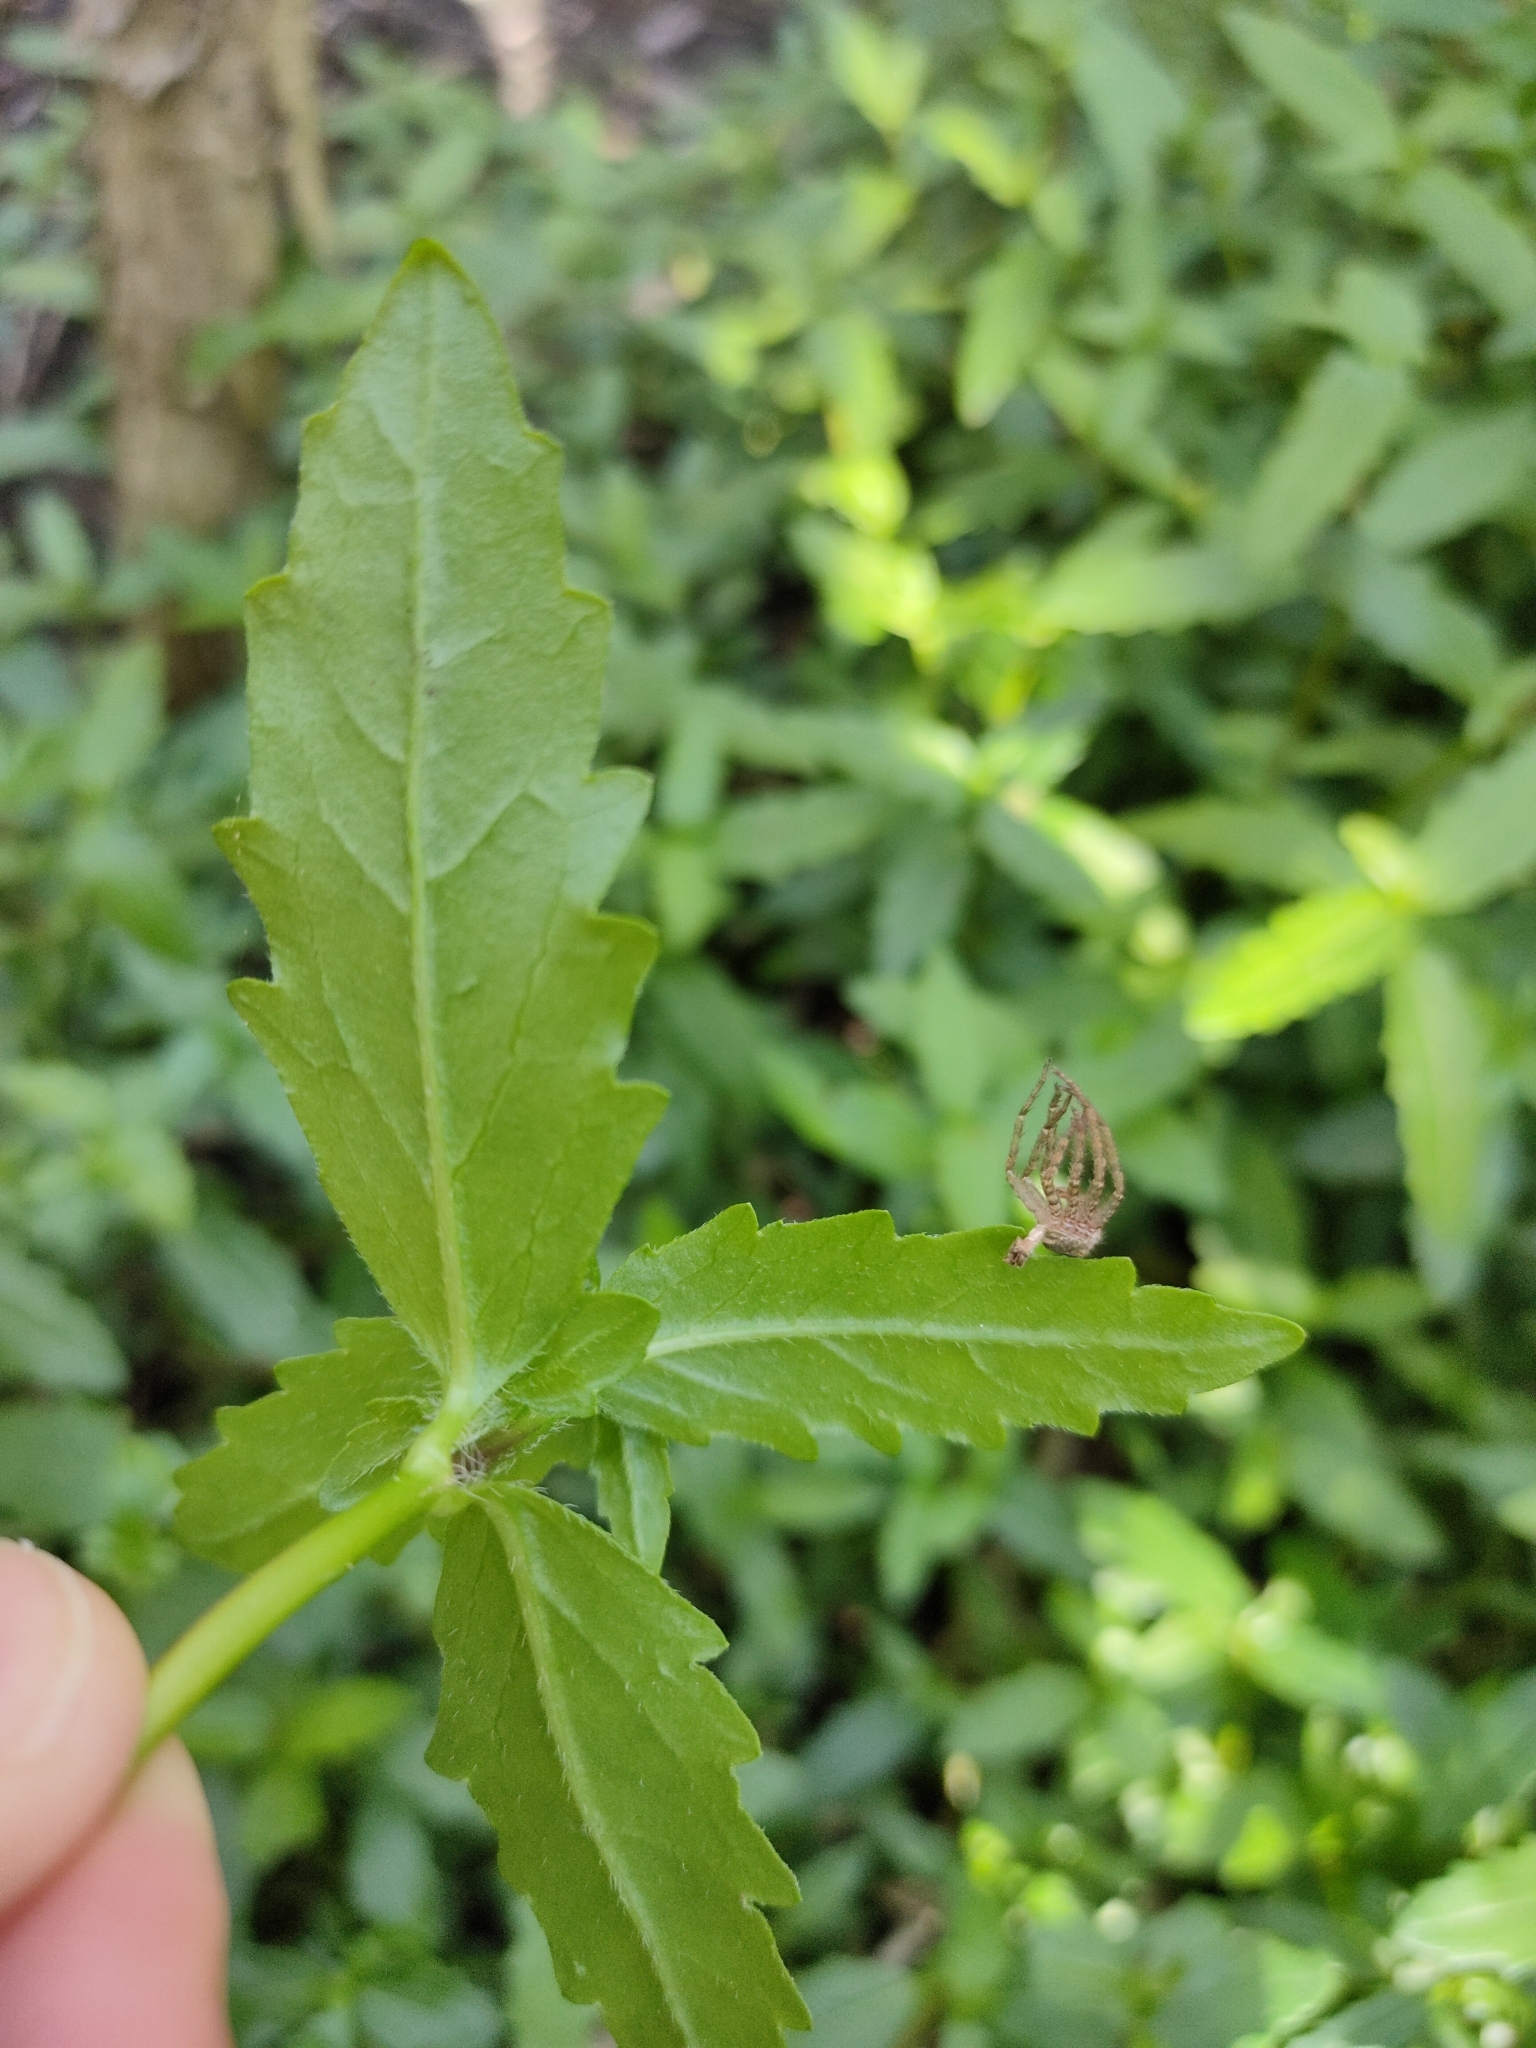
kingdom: Plantae
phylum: Tracheophyta
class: Magnoliopsida
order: Asterales
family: Asteraceae
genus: Enydra
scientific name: Enydra fluctuans
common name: Buffalo spinach
